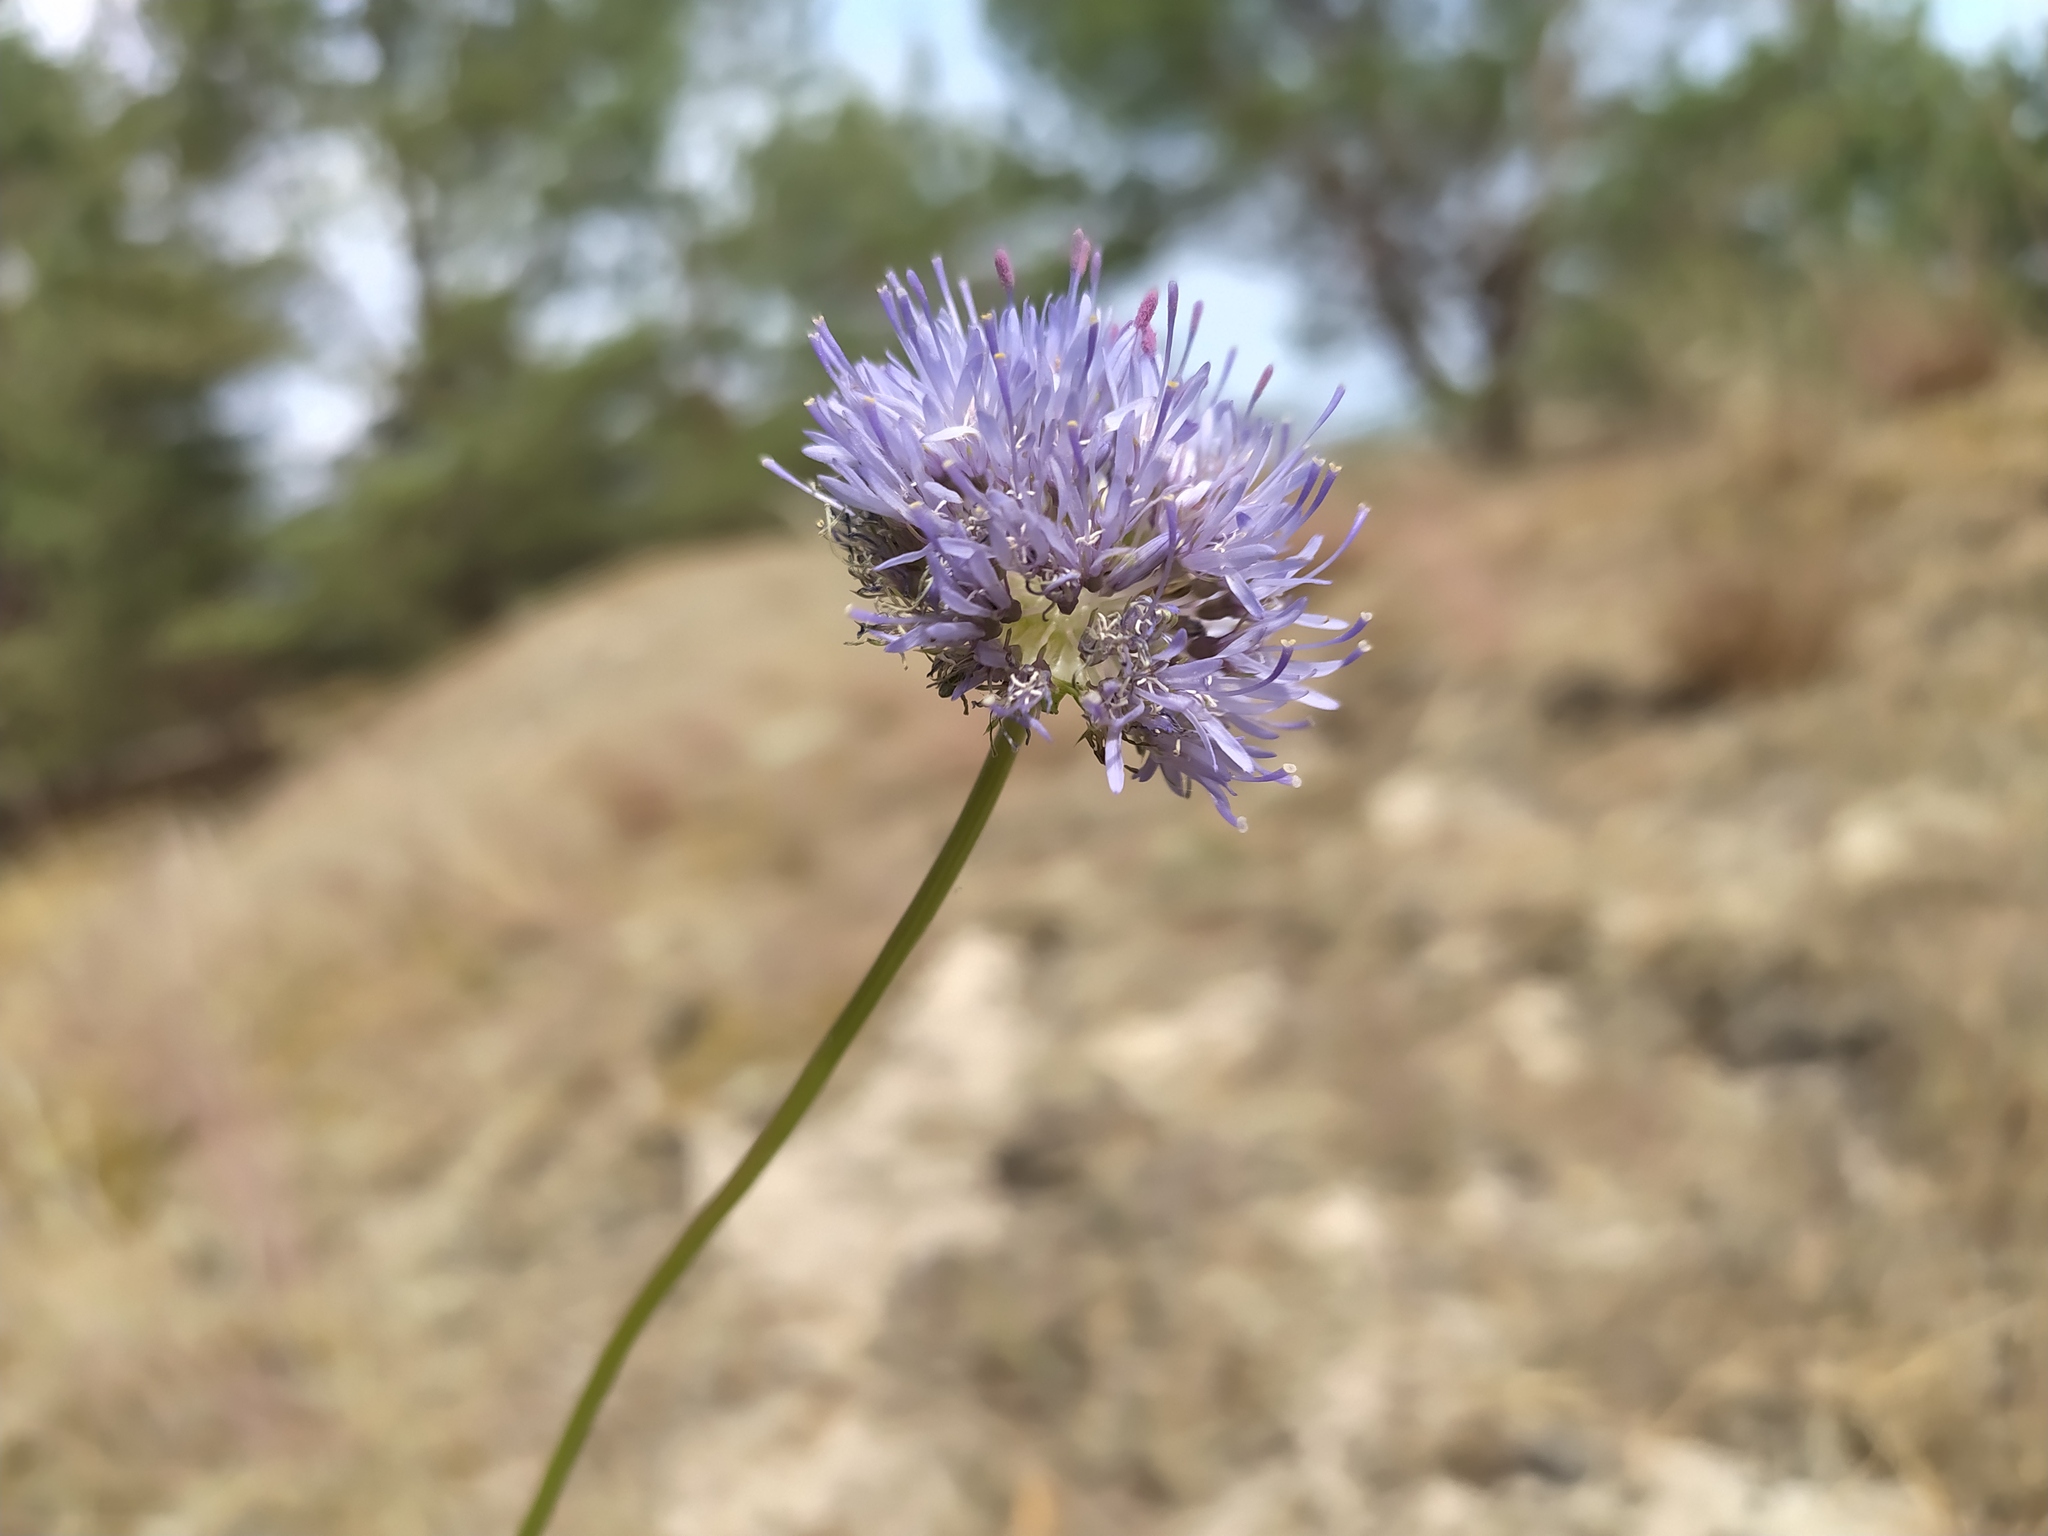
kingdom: Plantae
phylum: Tracheophyta
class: Magnoliopsida
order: Asterales
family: Campanulaceae
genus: Jasione
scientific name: Jasione montana
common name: Sheep's-bit
